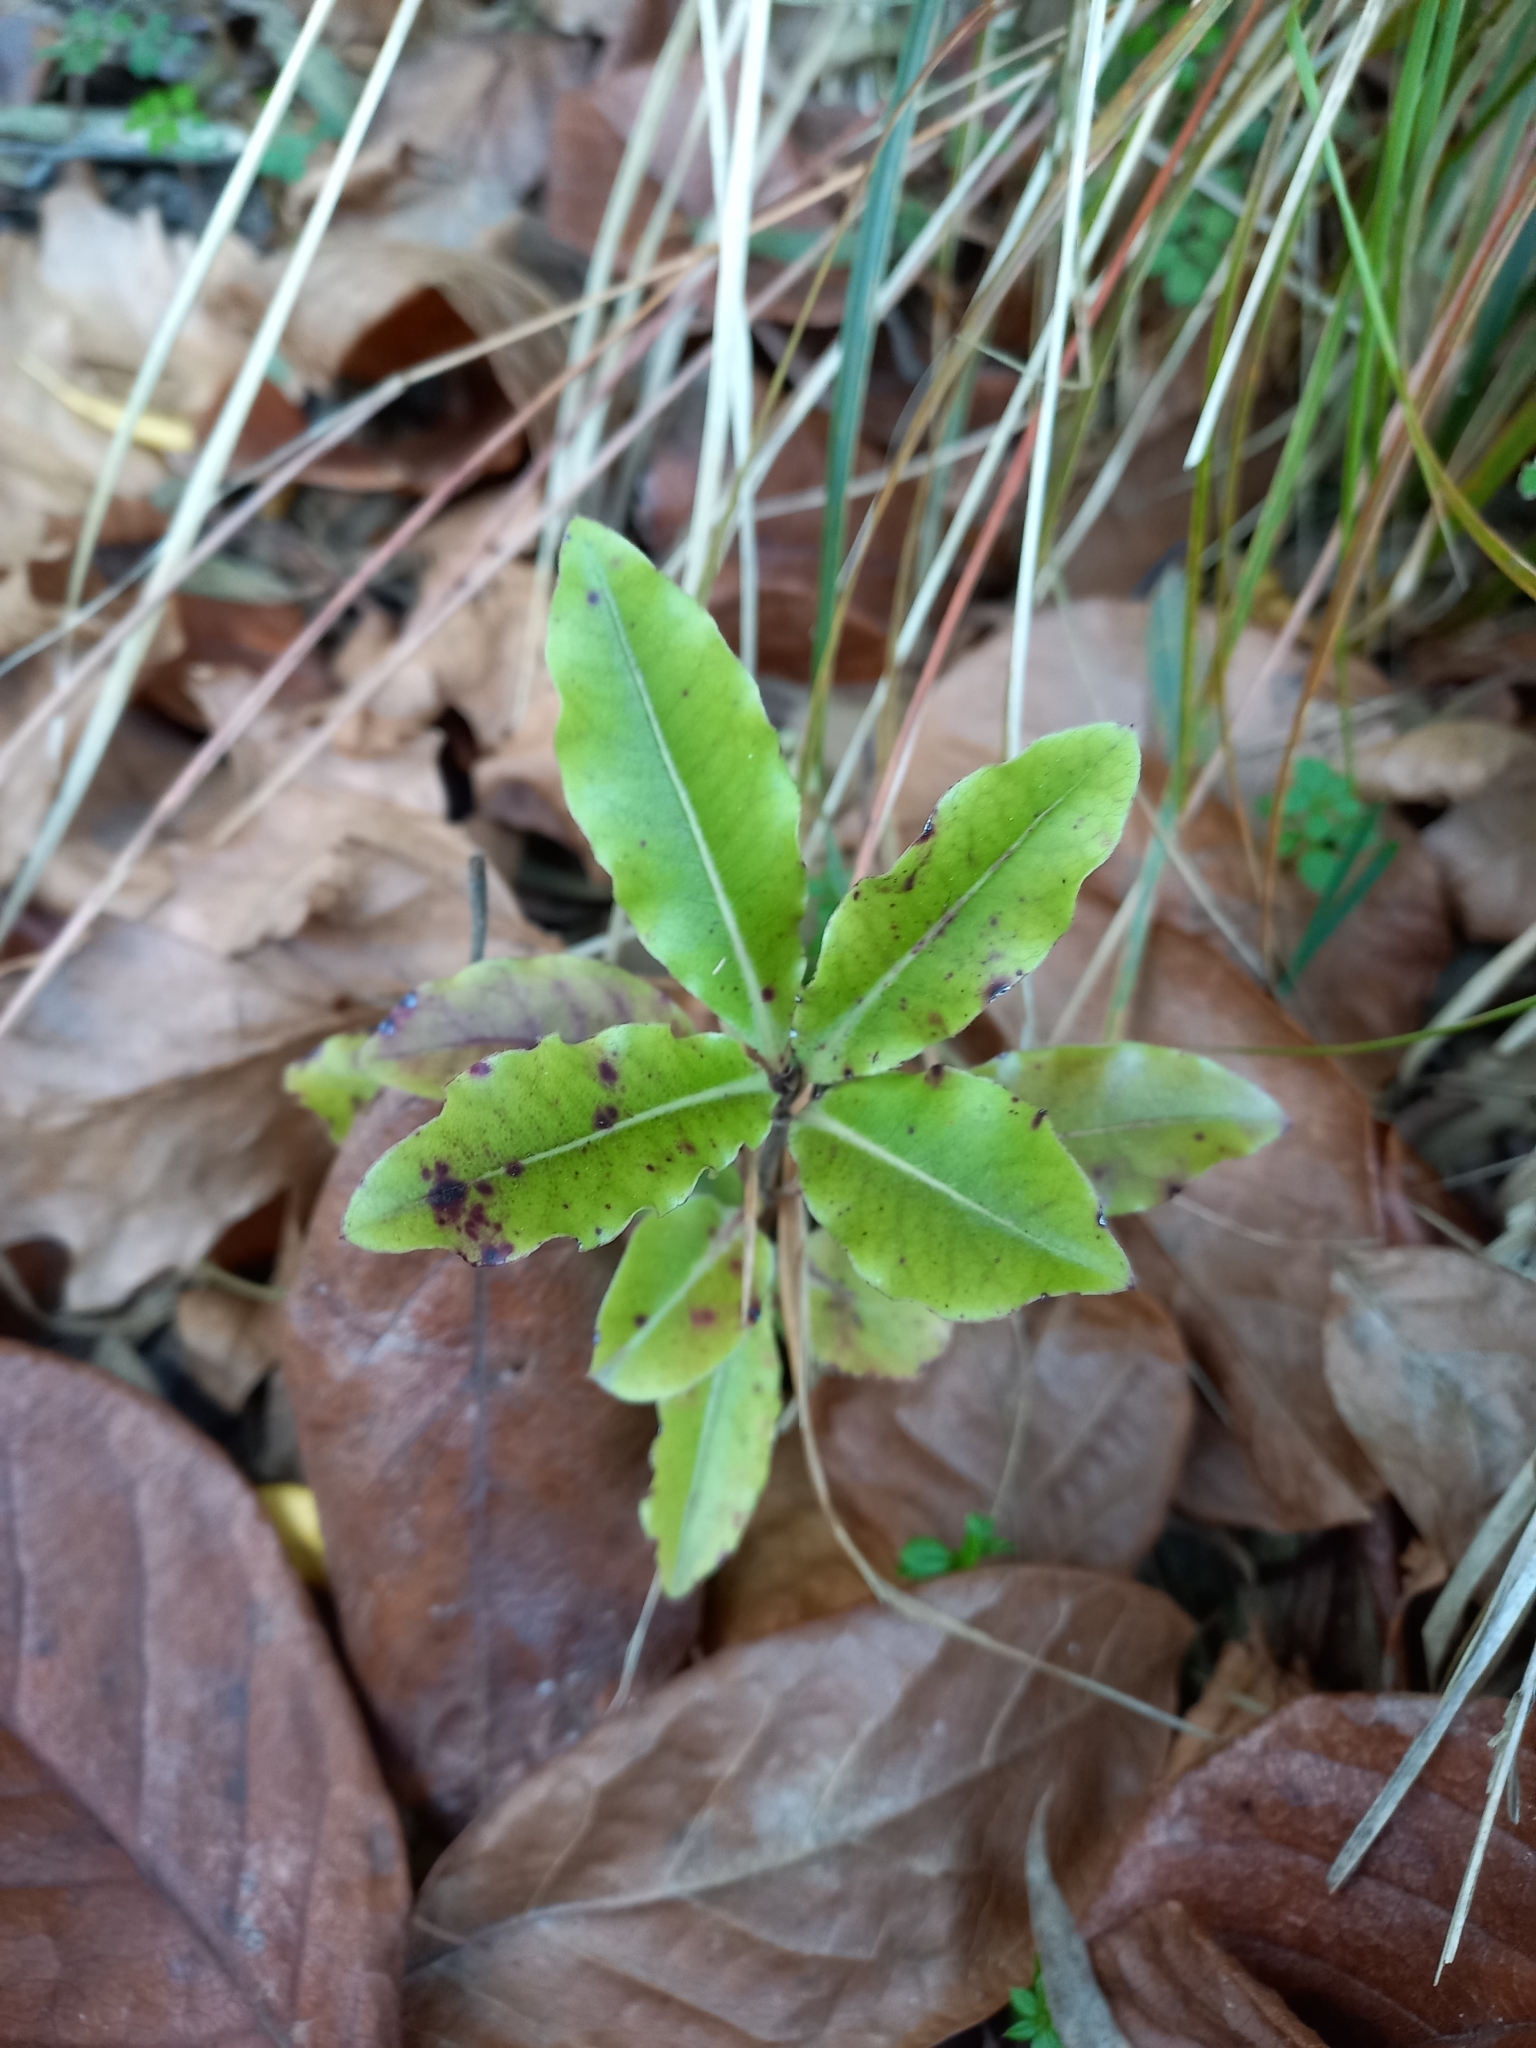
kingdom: Plantae
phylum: Tracheophyta
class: Magnoliopsida
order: Apiales
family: Pittosporaceae
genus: Pittosporum
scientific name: Pittosporum eugenioides
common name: Lemonwood
